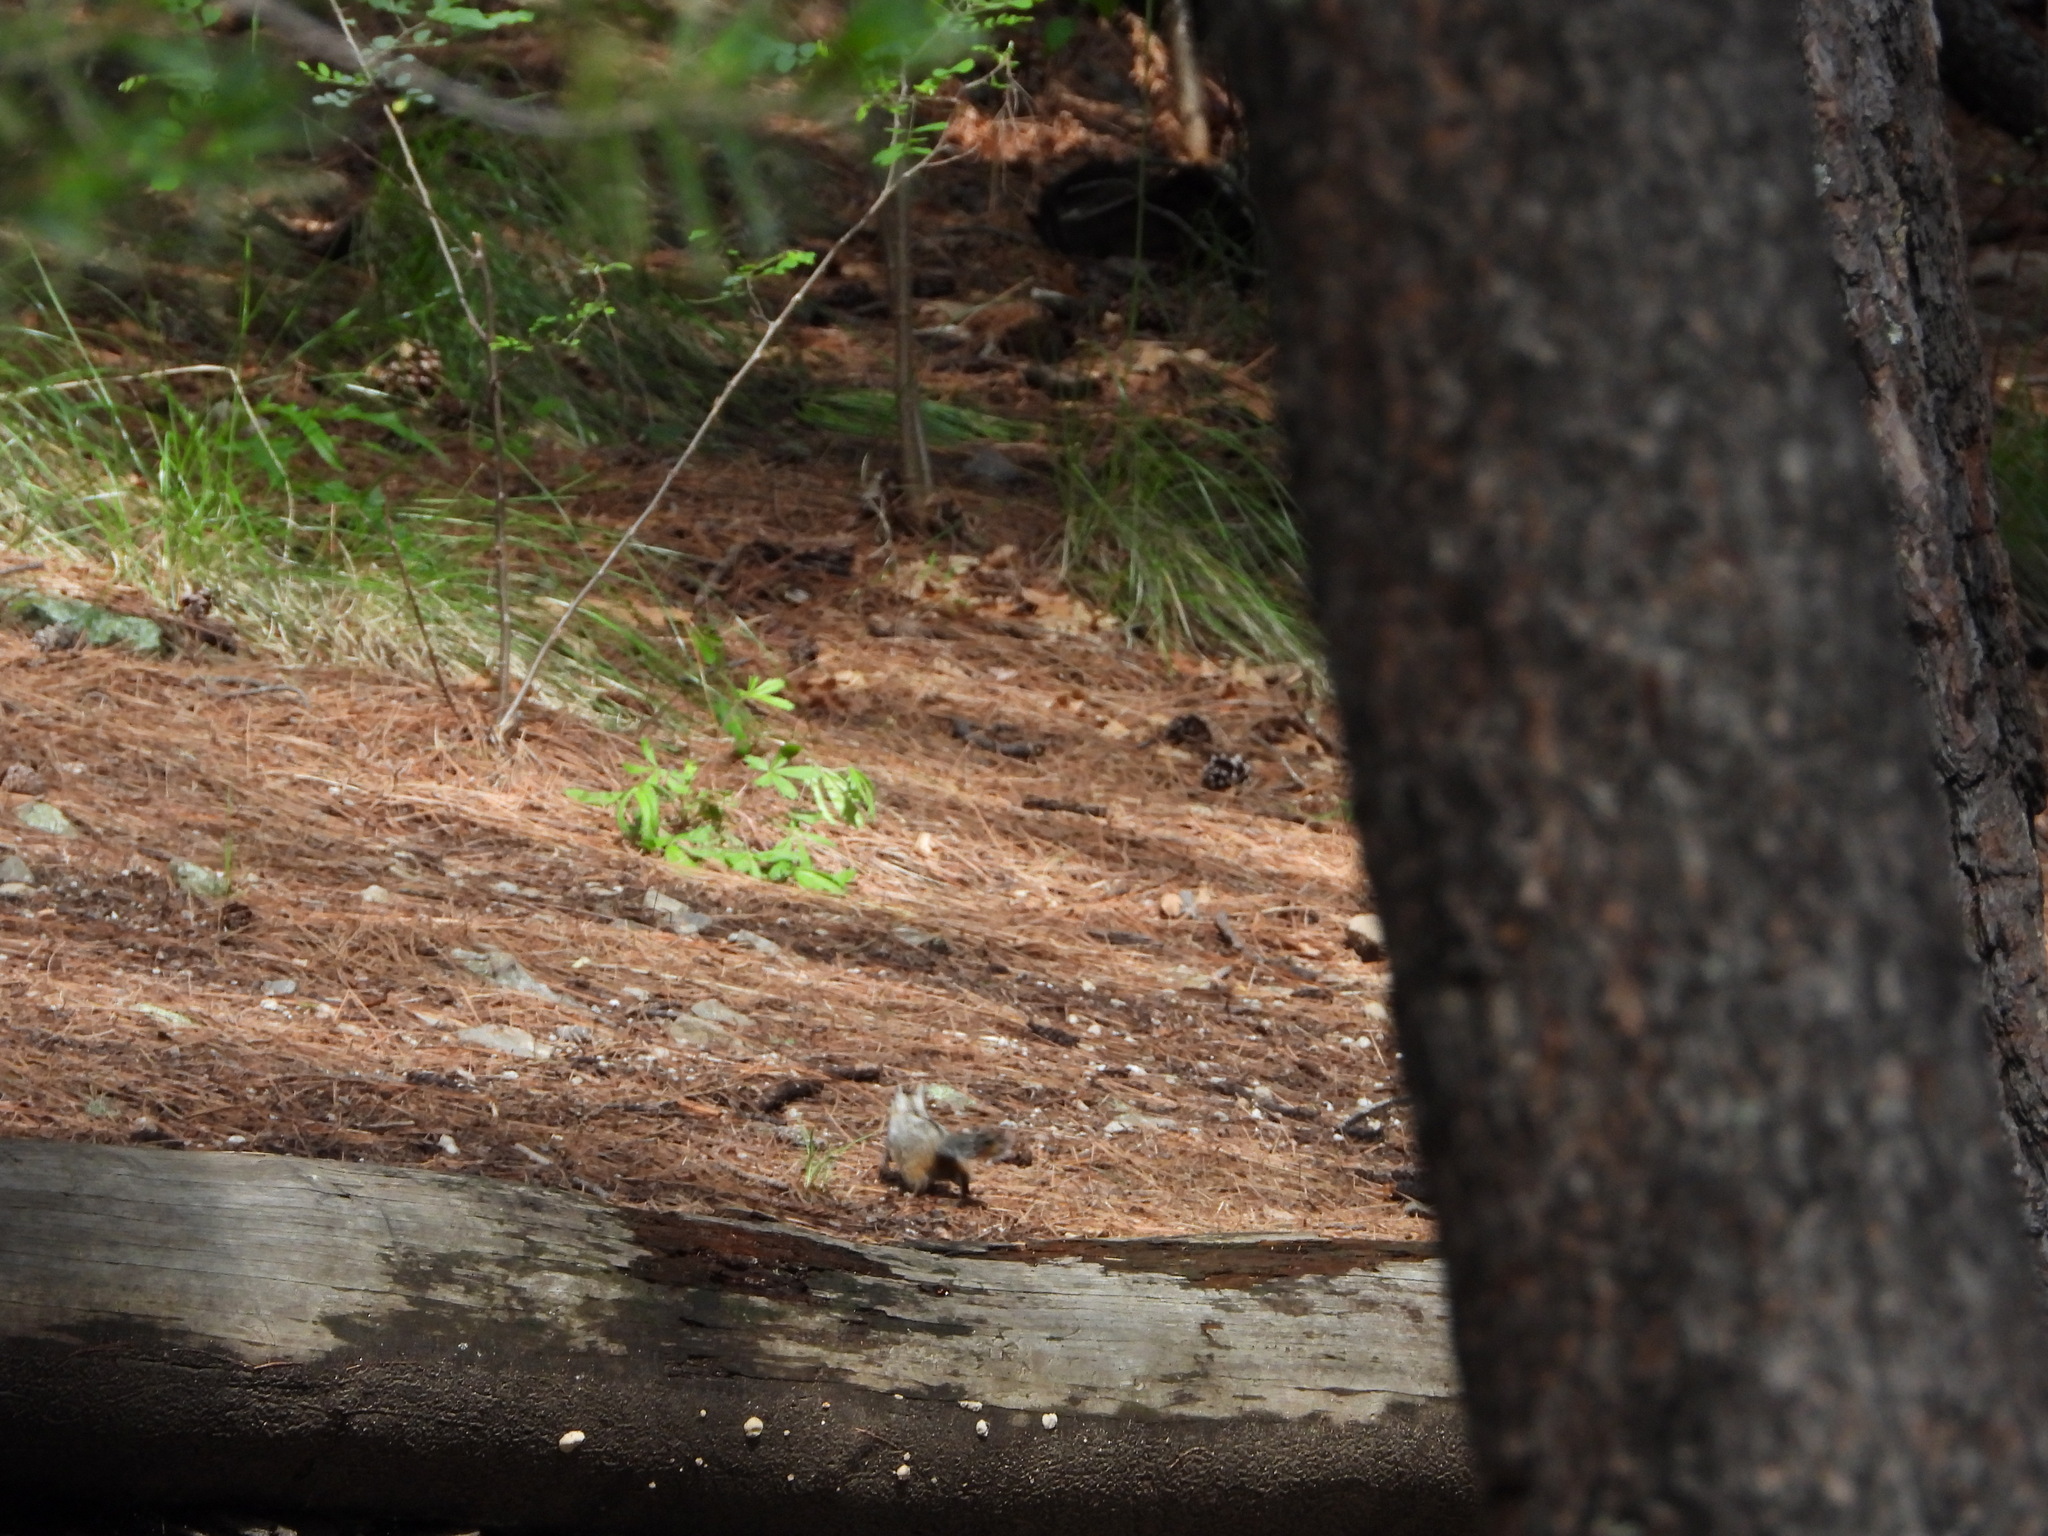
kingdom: Animalia
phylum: Chordata
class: Mammalia
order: Rodentia
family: Sciuridae
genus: Tamias
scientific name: Tamias dorsalis
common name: Cliff chipmunk
